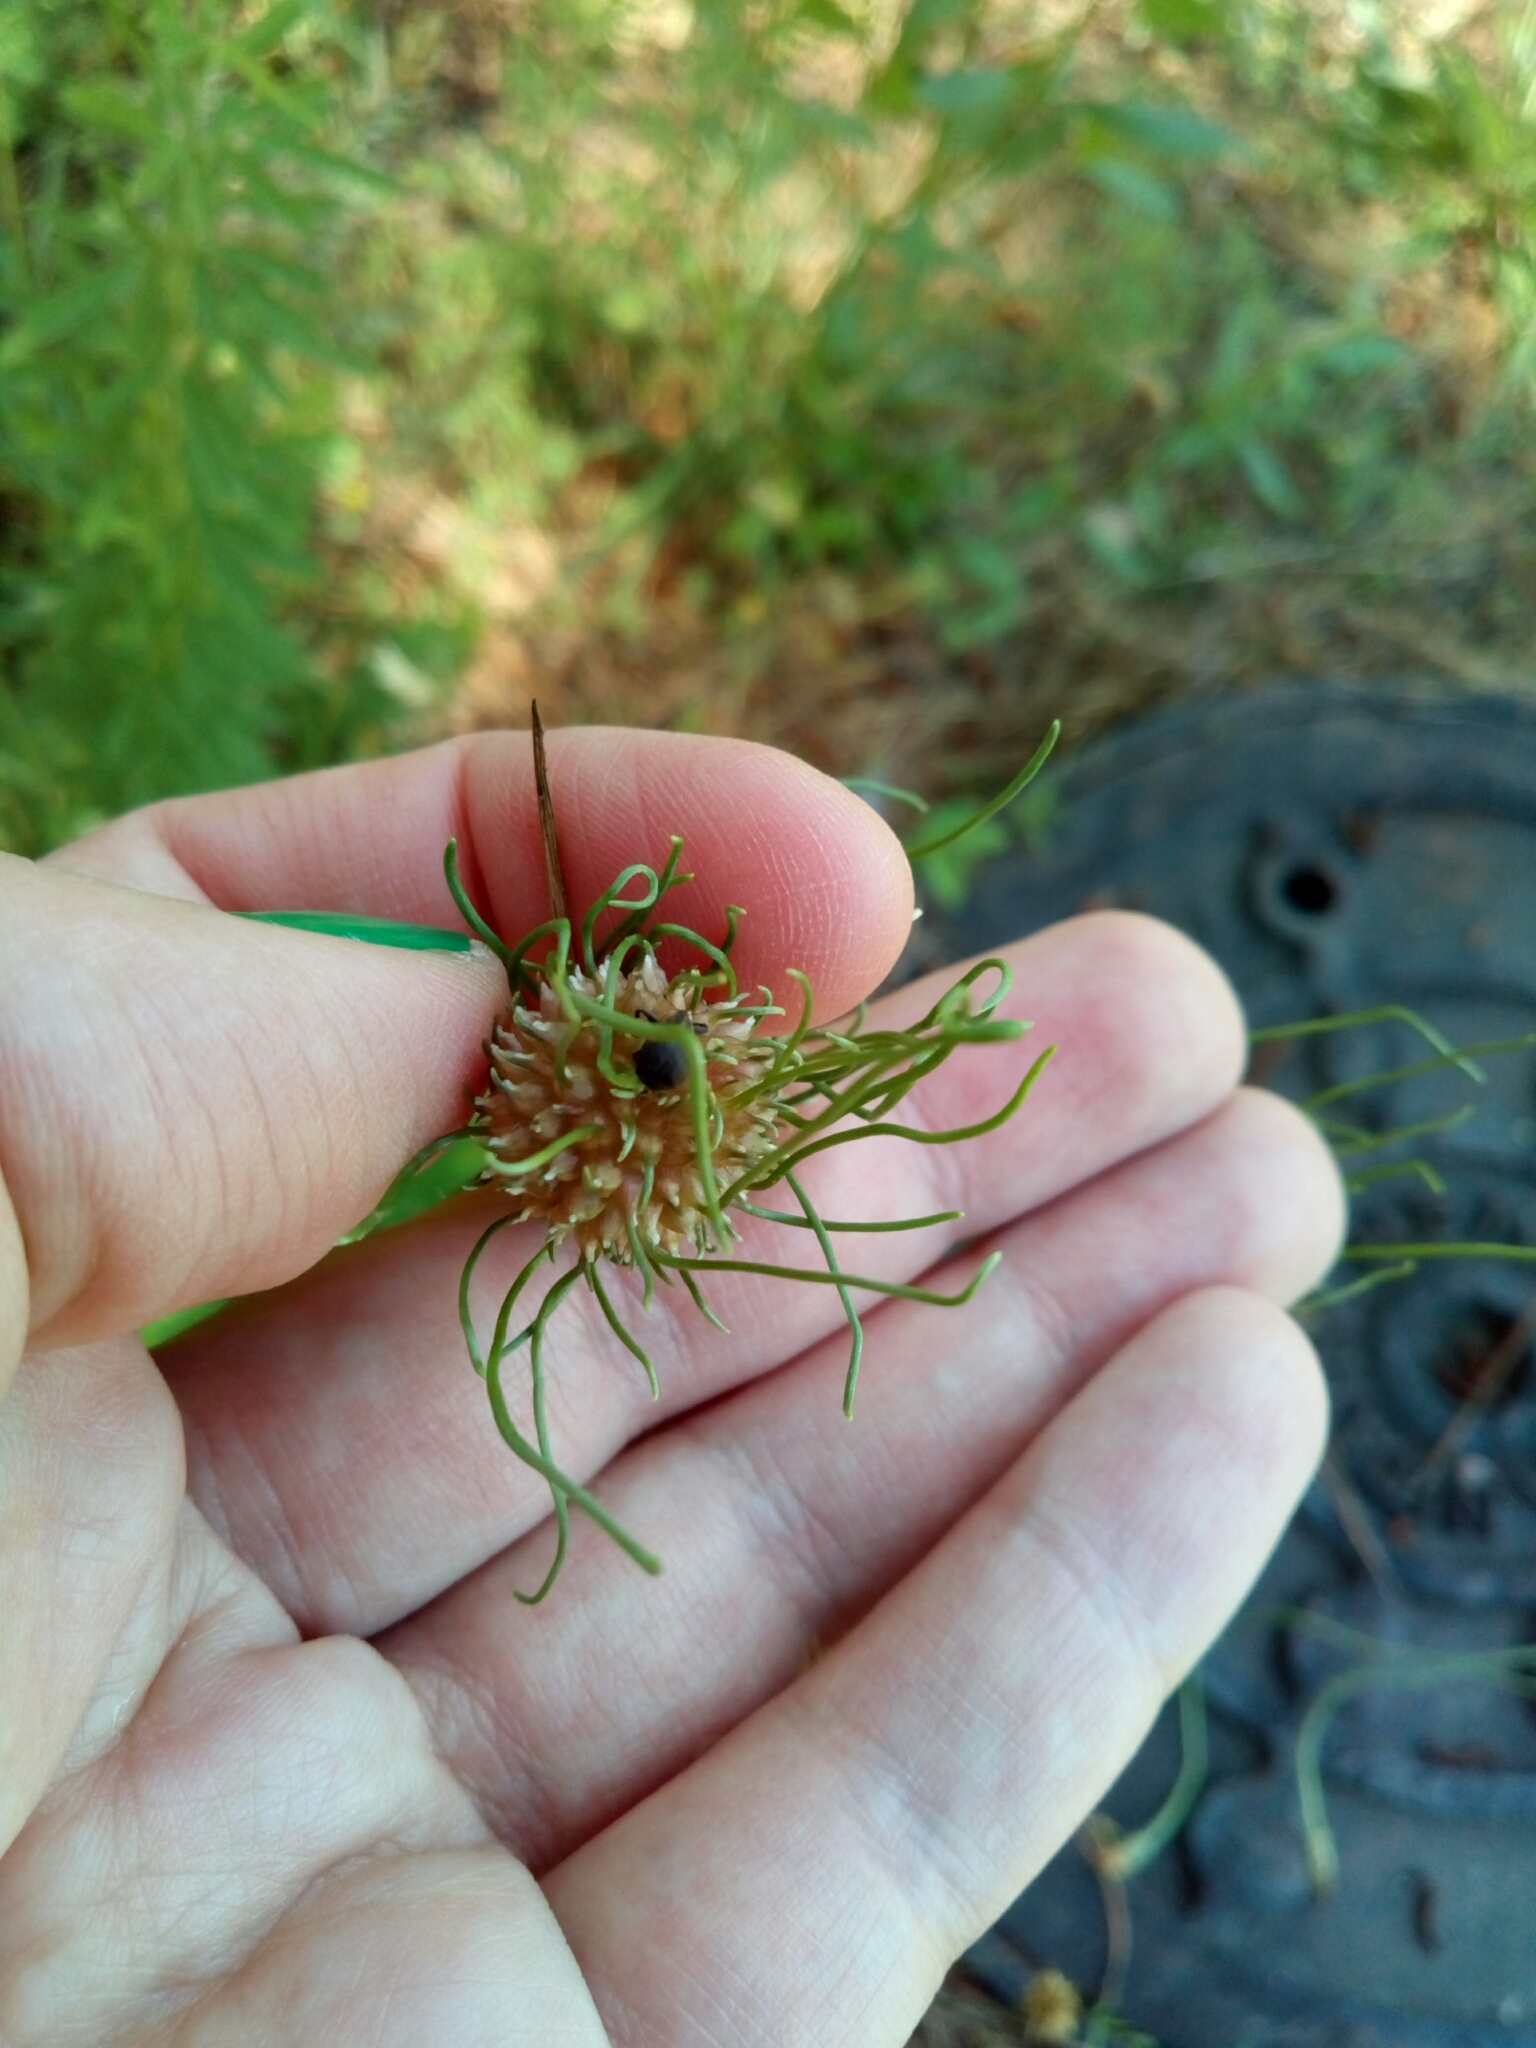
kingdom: Plantae
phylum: Tracheophyta
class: Liliopsida
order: Asparagales
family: Amaryllidaceae
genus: Allium
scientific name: Allium vineale
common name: Crow garlic
